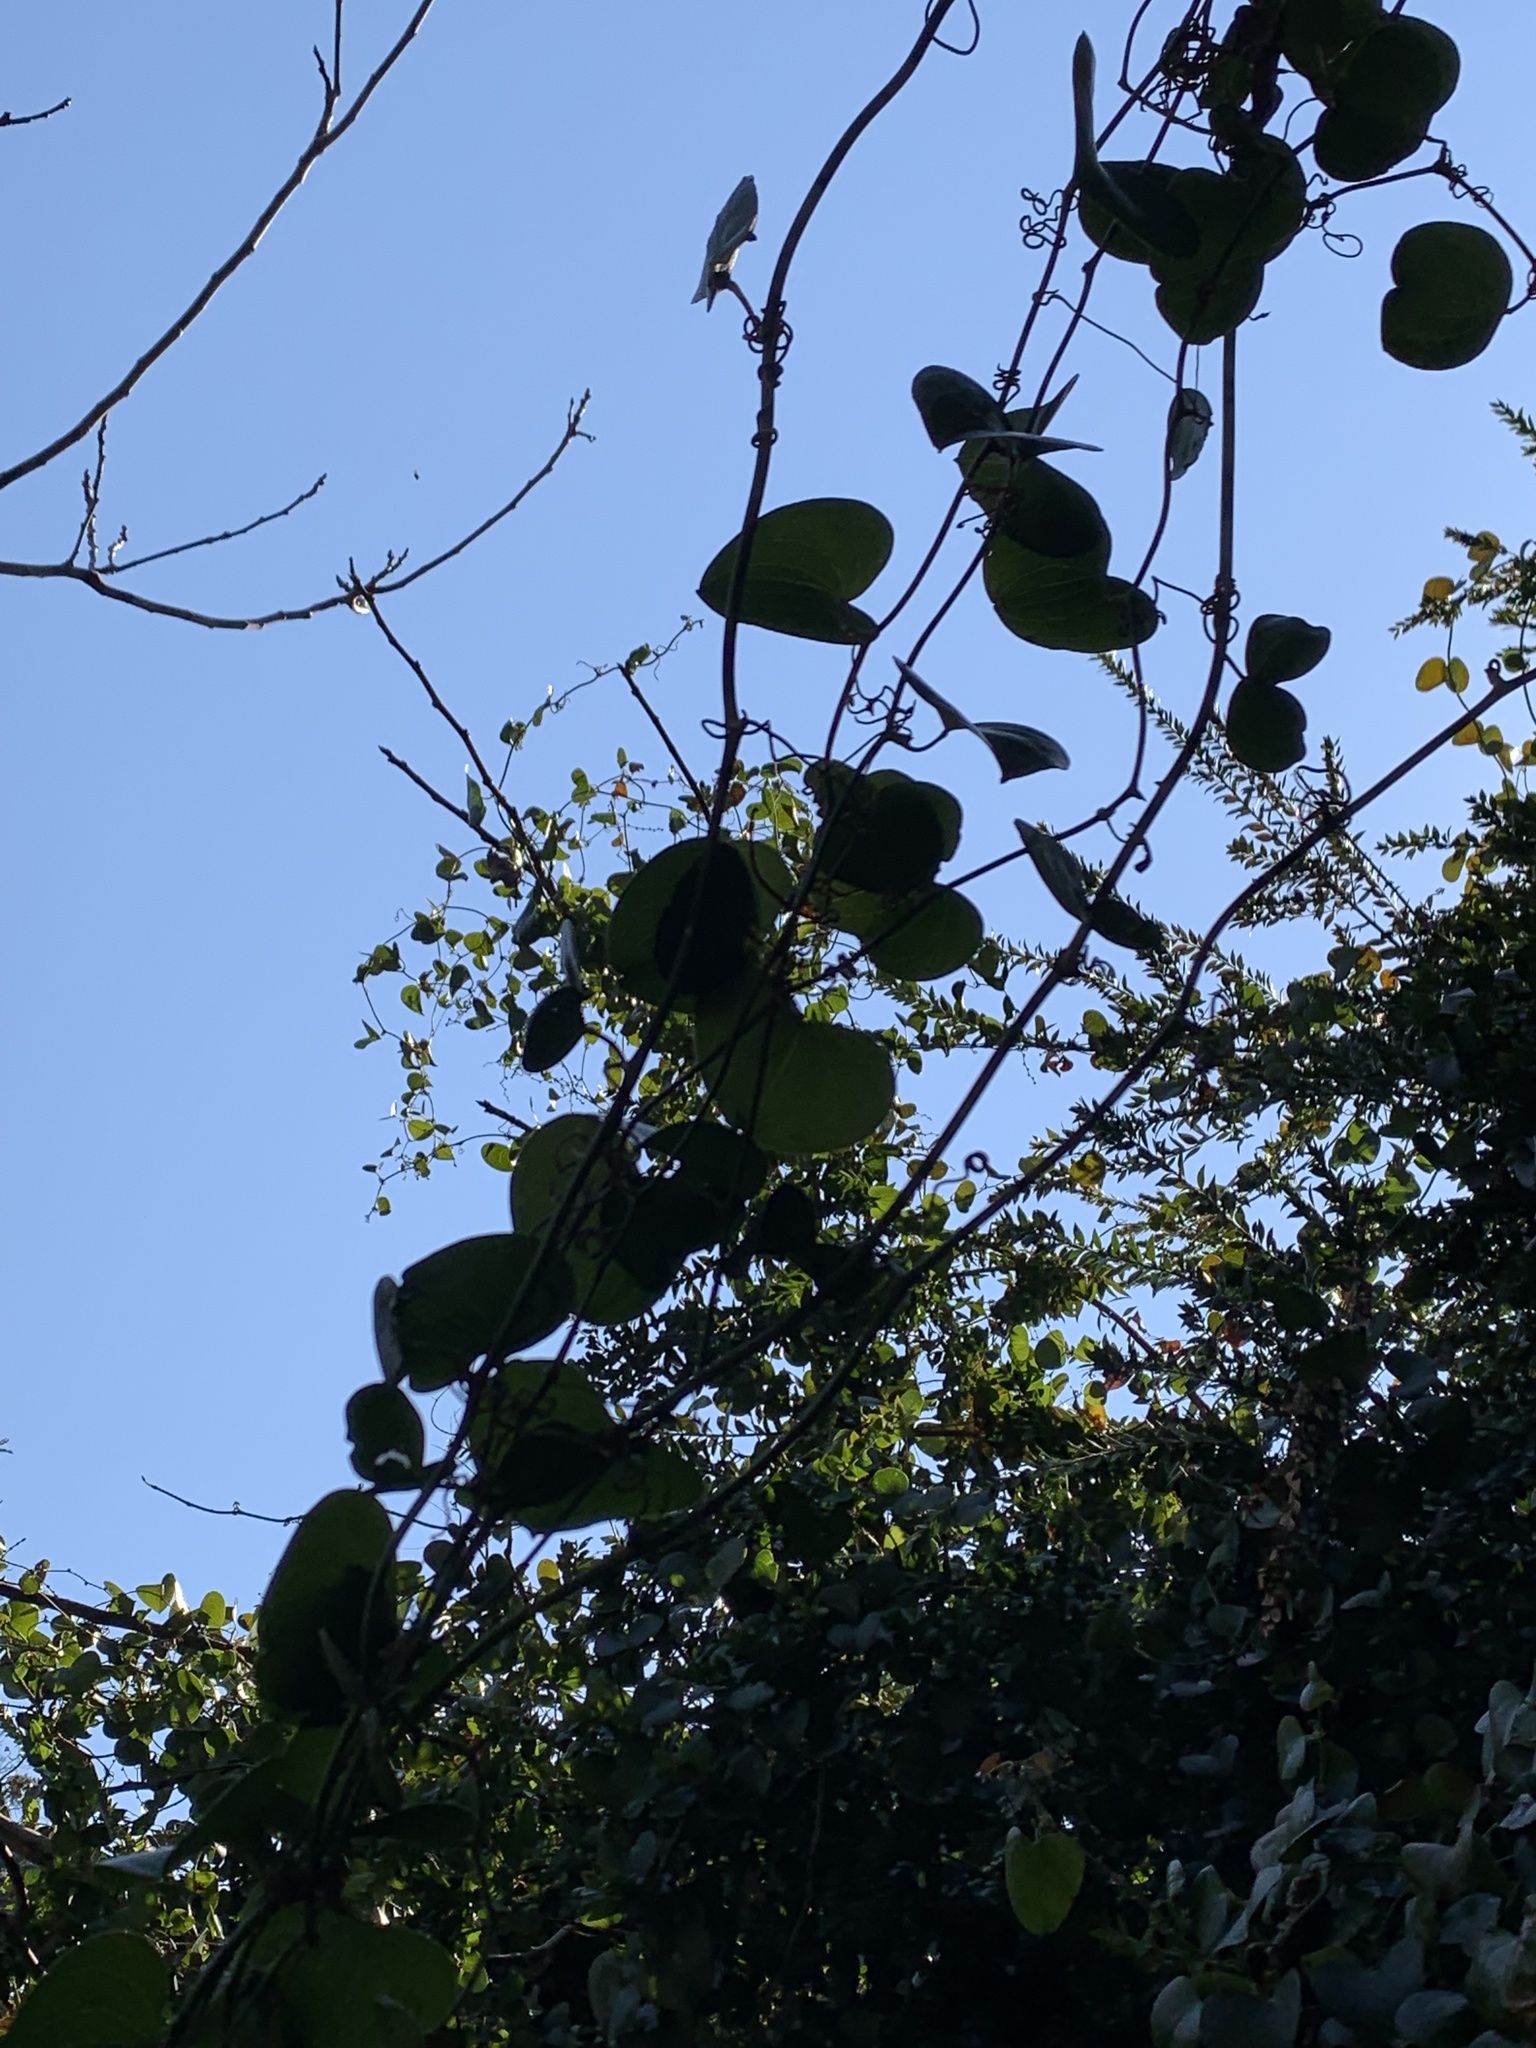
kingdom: Plantae
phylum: Tracheophyta
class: Liliopsida
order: Liliales
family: Smilacaceae
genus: Smilax
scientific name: Smilax aspera
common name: Common smilax
